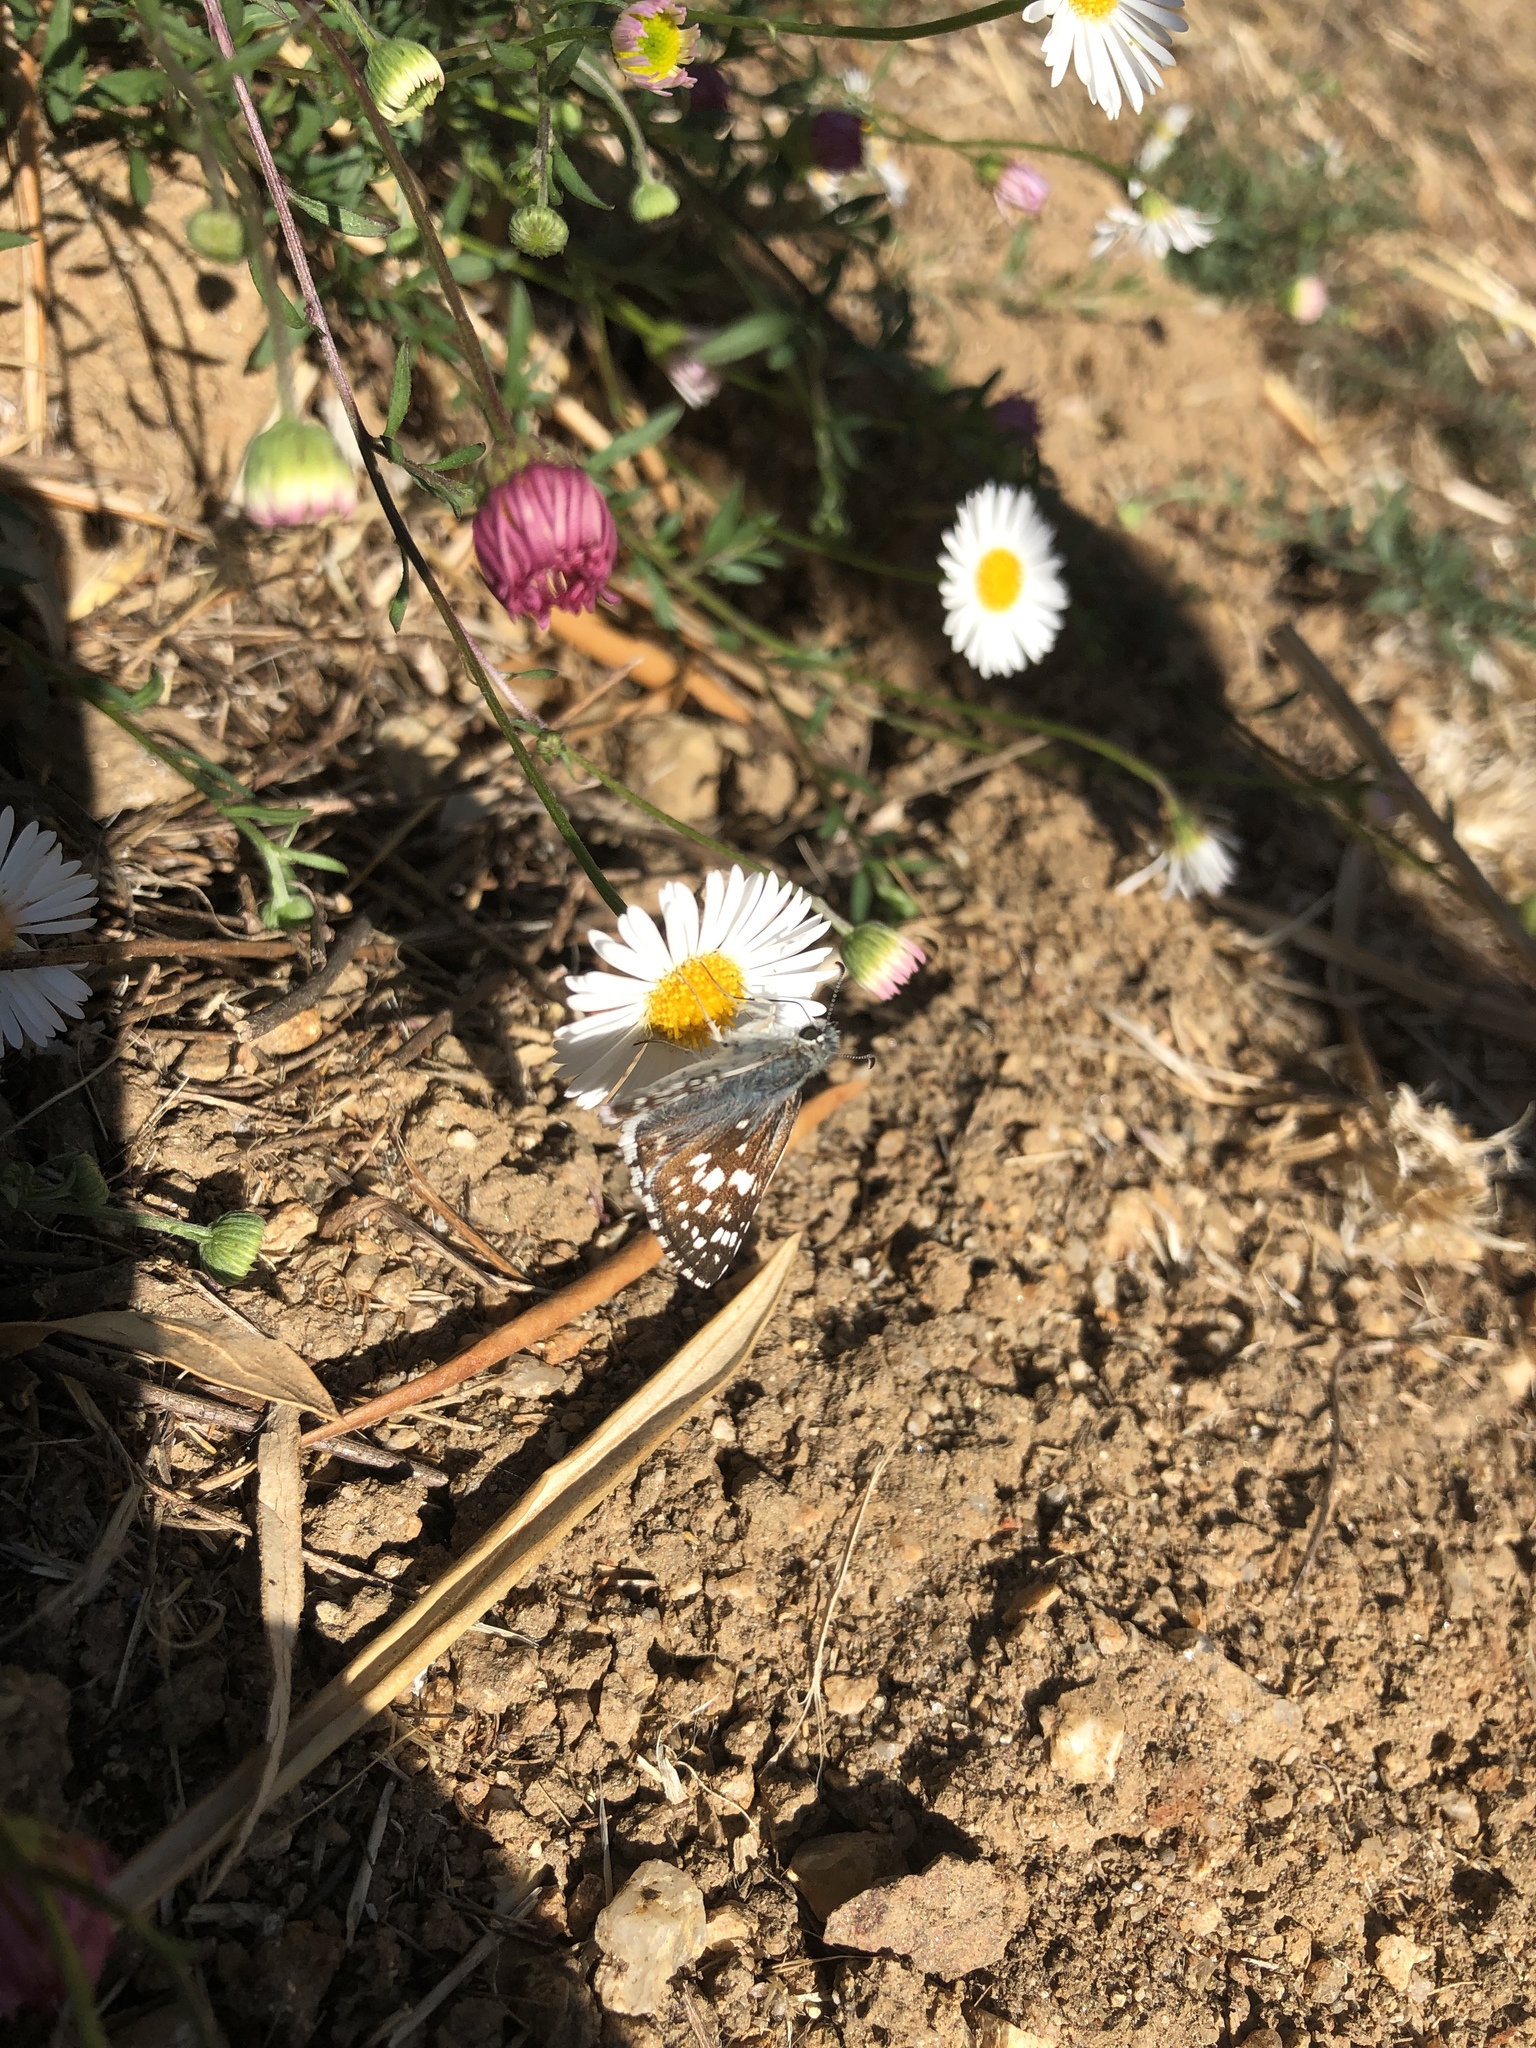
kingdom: Animalia
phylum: Arthropoda
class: Insecta
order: Lepidoptera
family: Hesperiidae
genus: Burnsius
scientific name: Burnsius communis
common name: Common checkered-skipper
